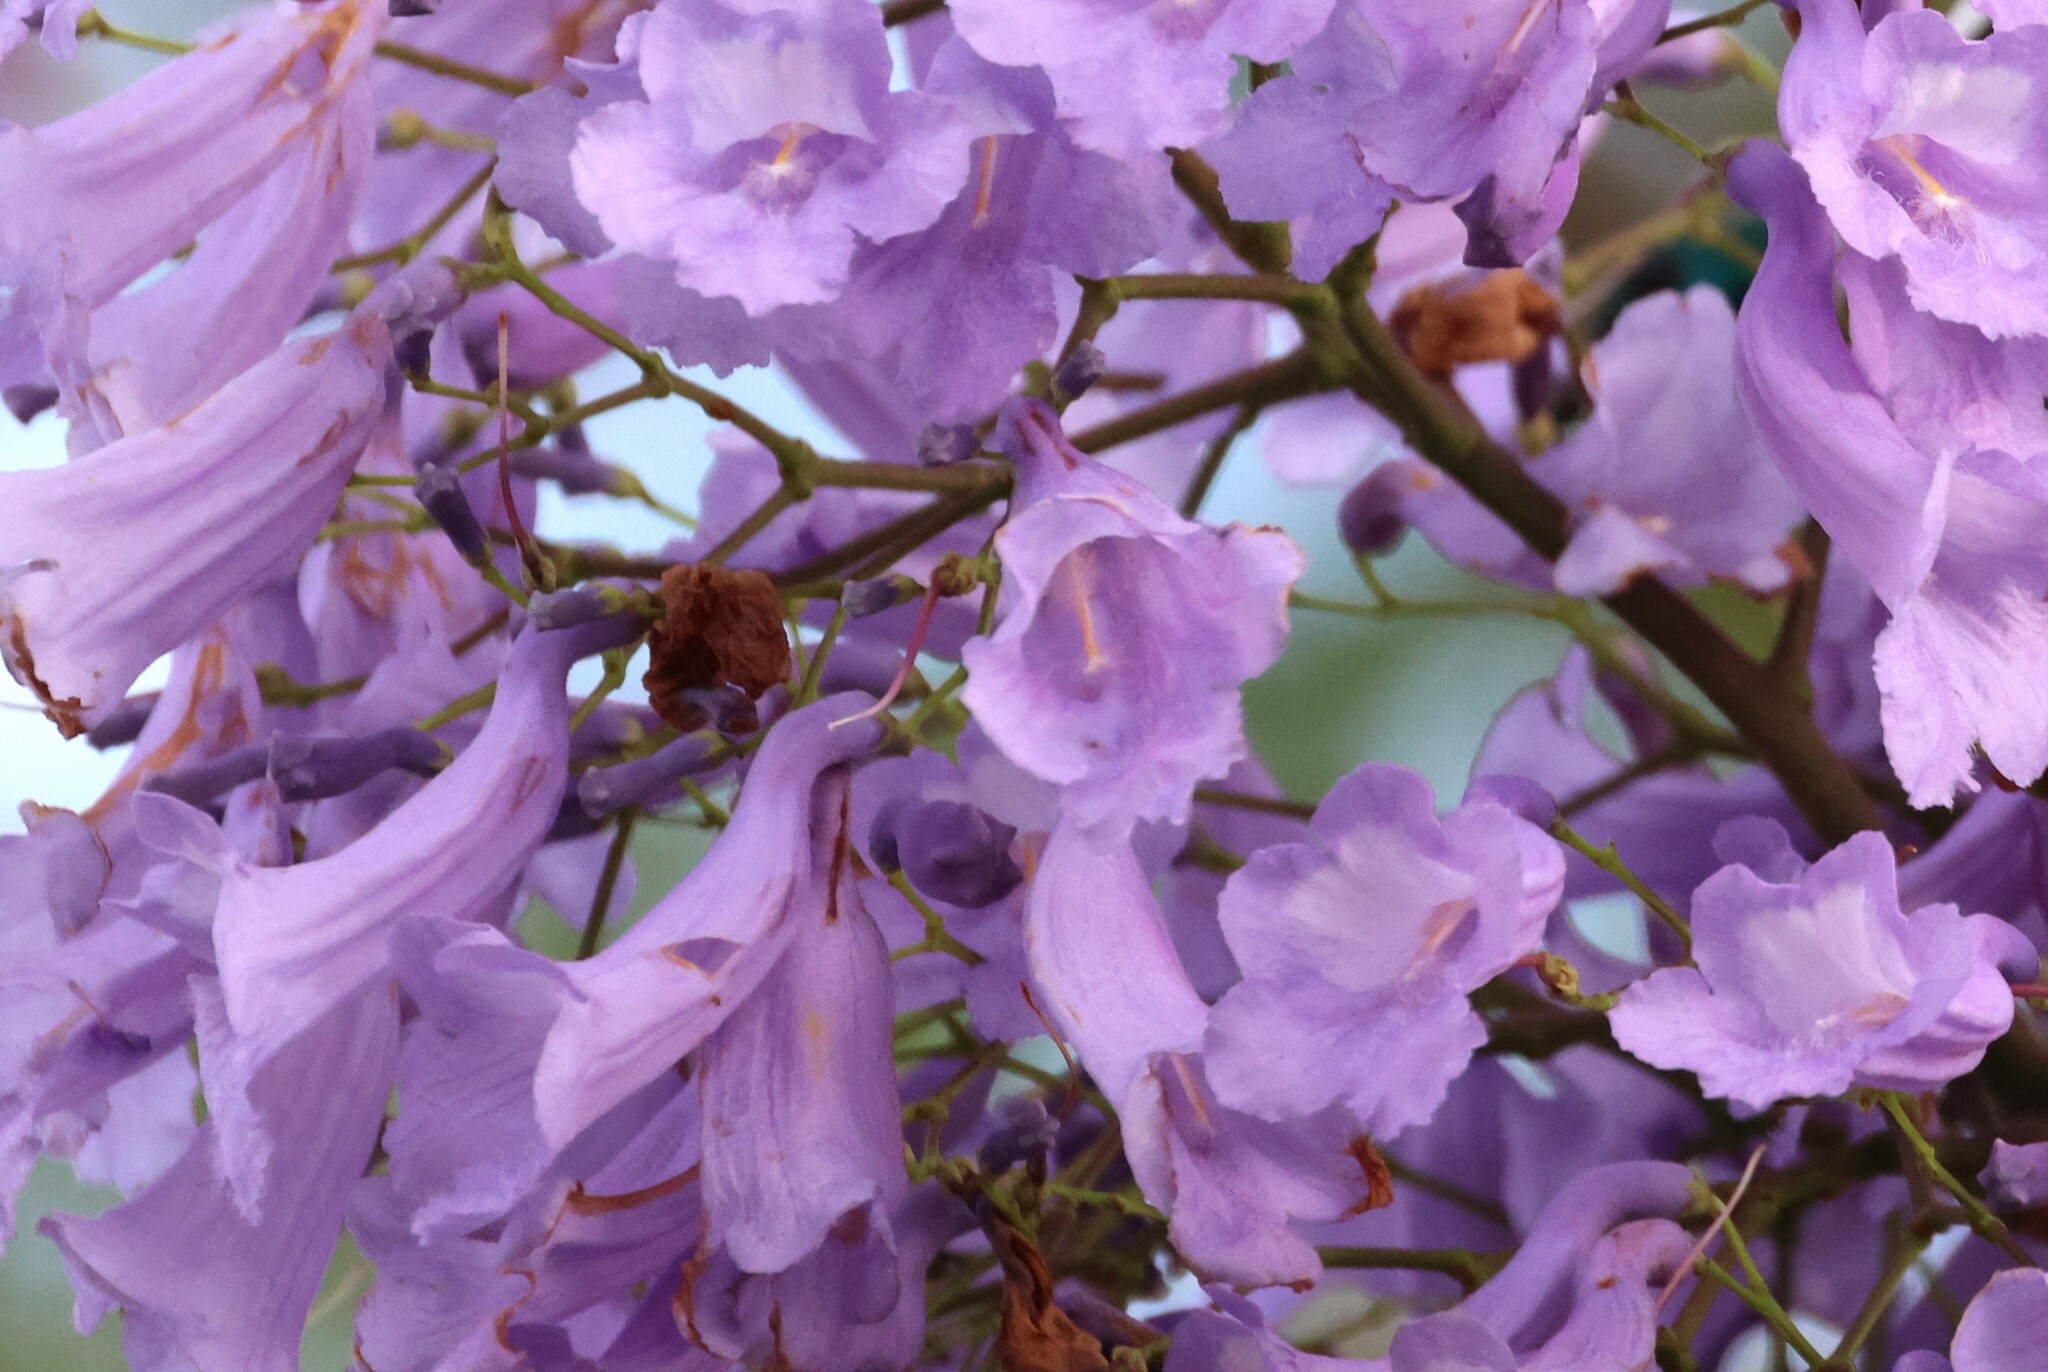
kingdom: Plantae
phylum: Tracheophyta
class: Magnoliopsida
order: Lamiales
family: Bignoniaceae
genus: Jacaranda
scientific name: Jacaranda mimosifolia
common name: Black poui
